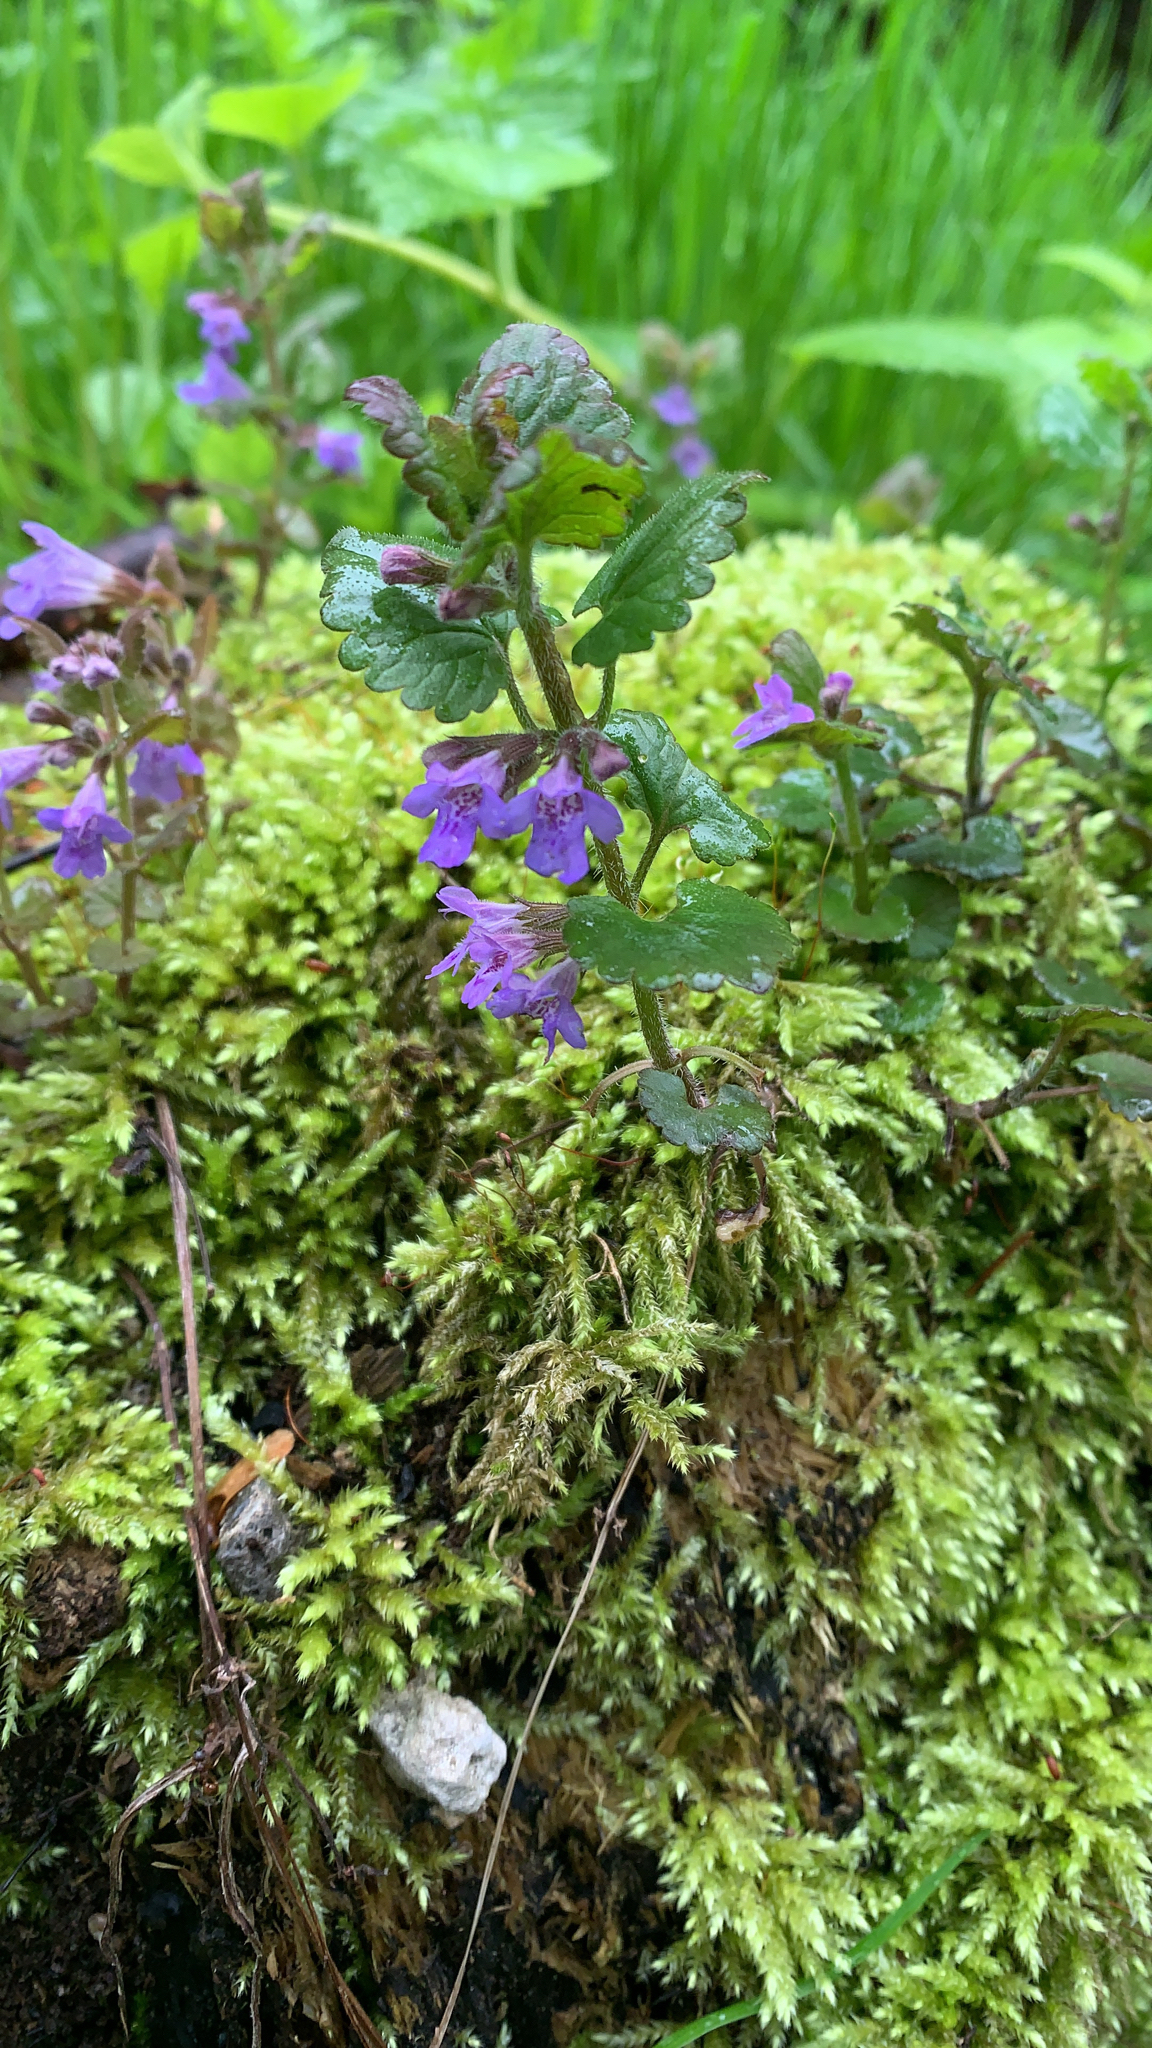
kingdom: Plantae
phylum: Tracheophyta
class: Magnoliopsida
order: Lamiales
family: Lamiaceae
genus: Glechoma
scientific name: Glechoma hederacea
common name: Ground ivy
